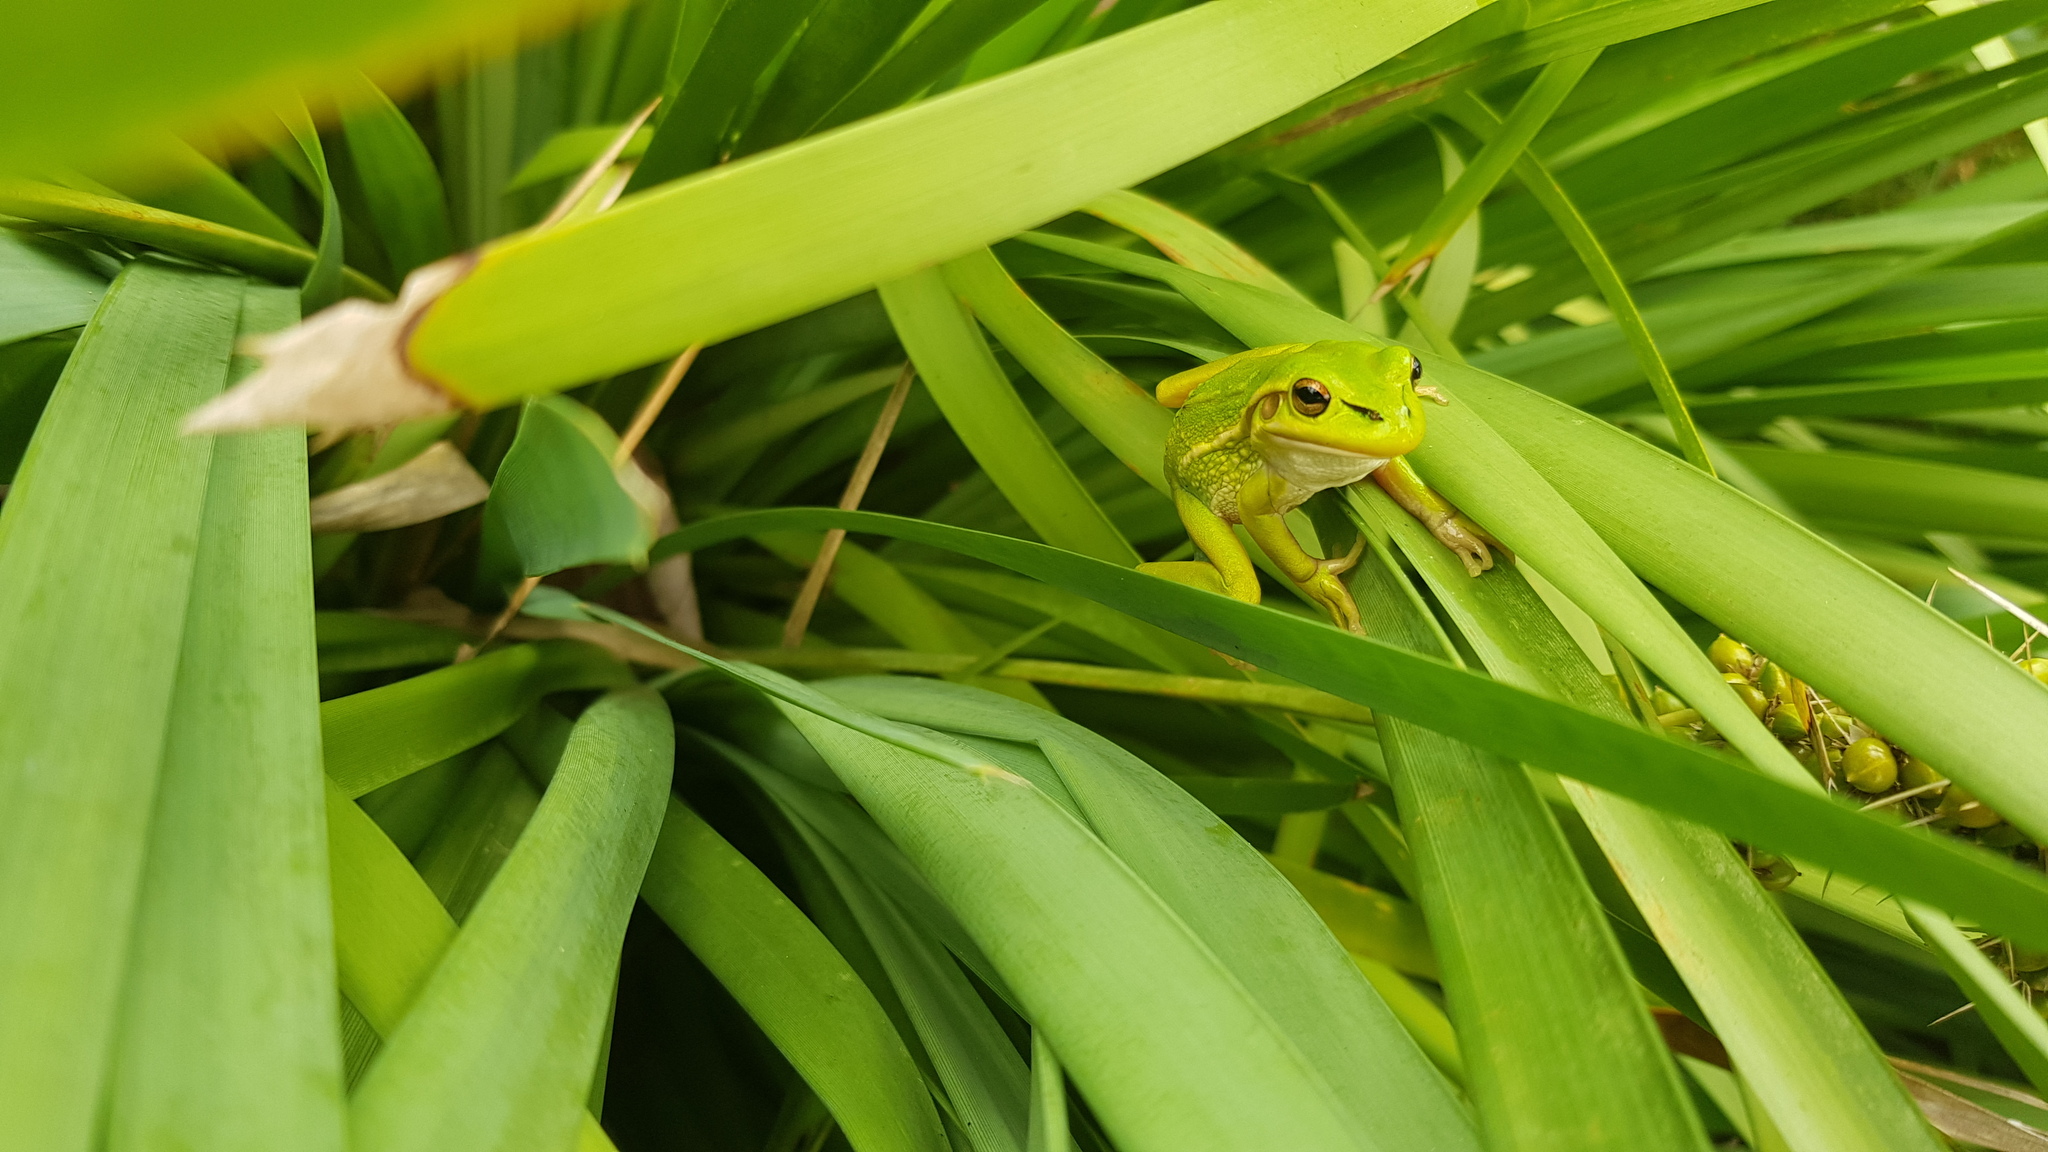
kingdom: Animalia
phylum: Chordata
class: Amphibia
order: Anura
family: Pelodryadidae
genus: Ranoidea
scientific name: Ranoidea aurea
